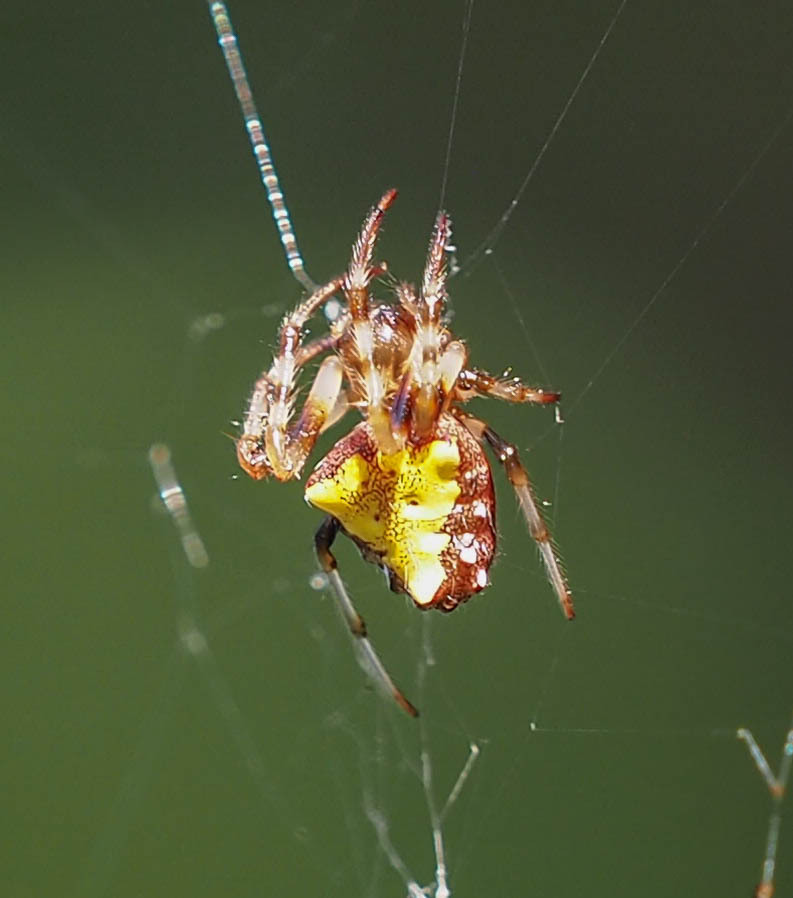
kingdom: Animalia
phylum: Arthropoda
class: Arachnida
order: Araneae
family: Araneidae
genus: Verrucosa
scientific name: Verrucosa arenata
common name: Orb weavers
